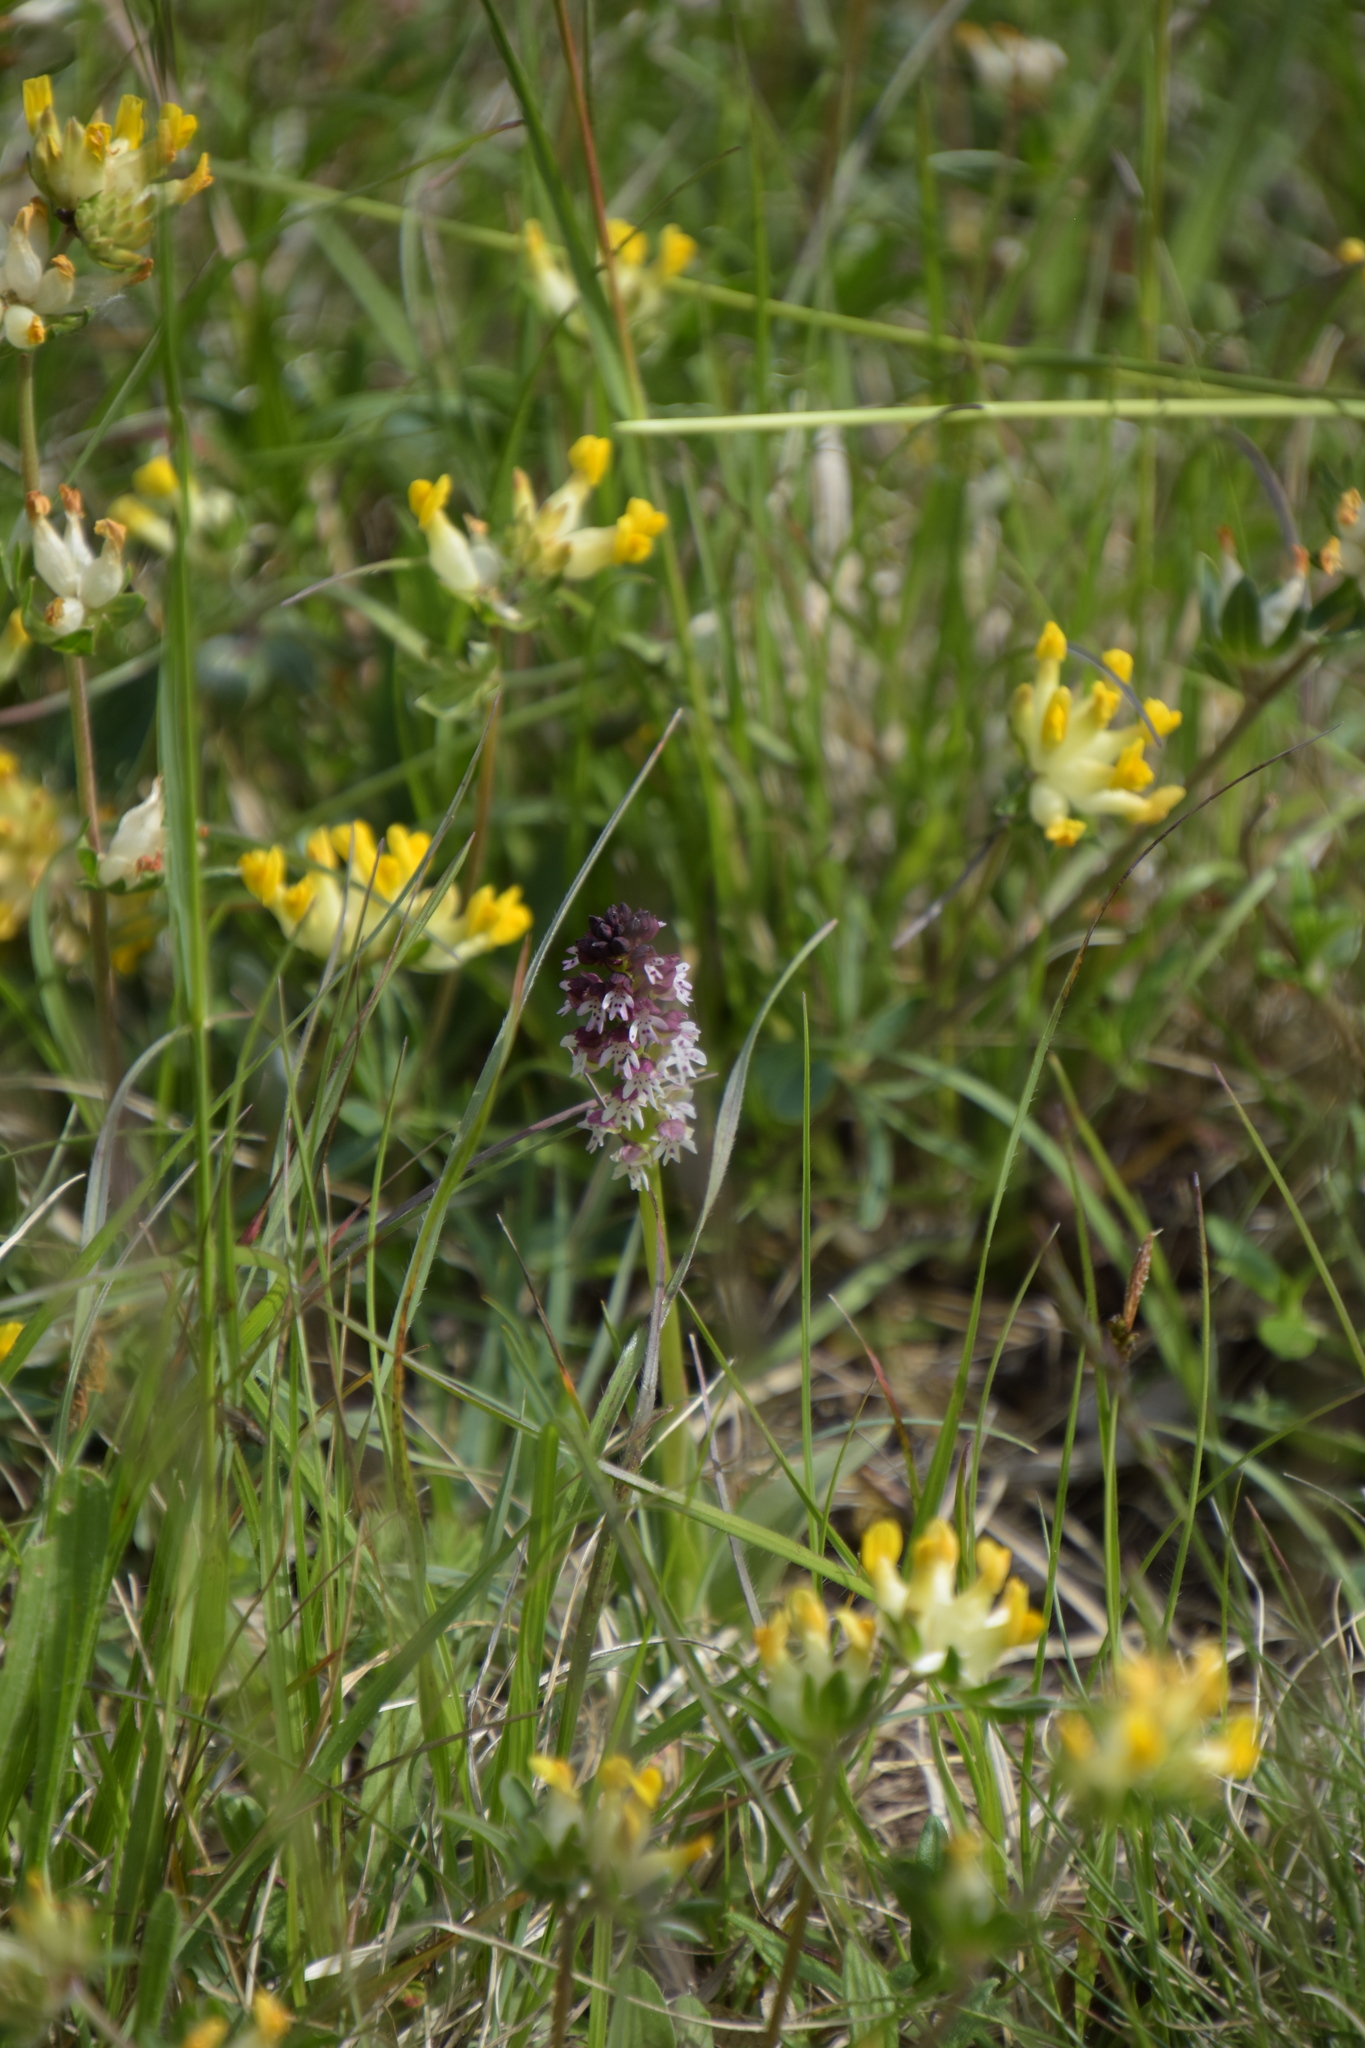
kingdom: Plantae
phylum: Tracheophyta
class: Liliopsida
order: Asparagales
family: Orchidaceae
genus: Neotinea
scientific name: Neotinea ustulata
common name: Burnt orchid
